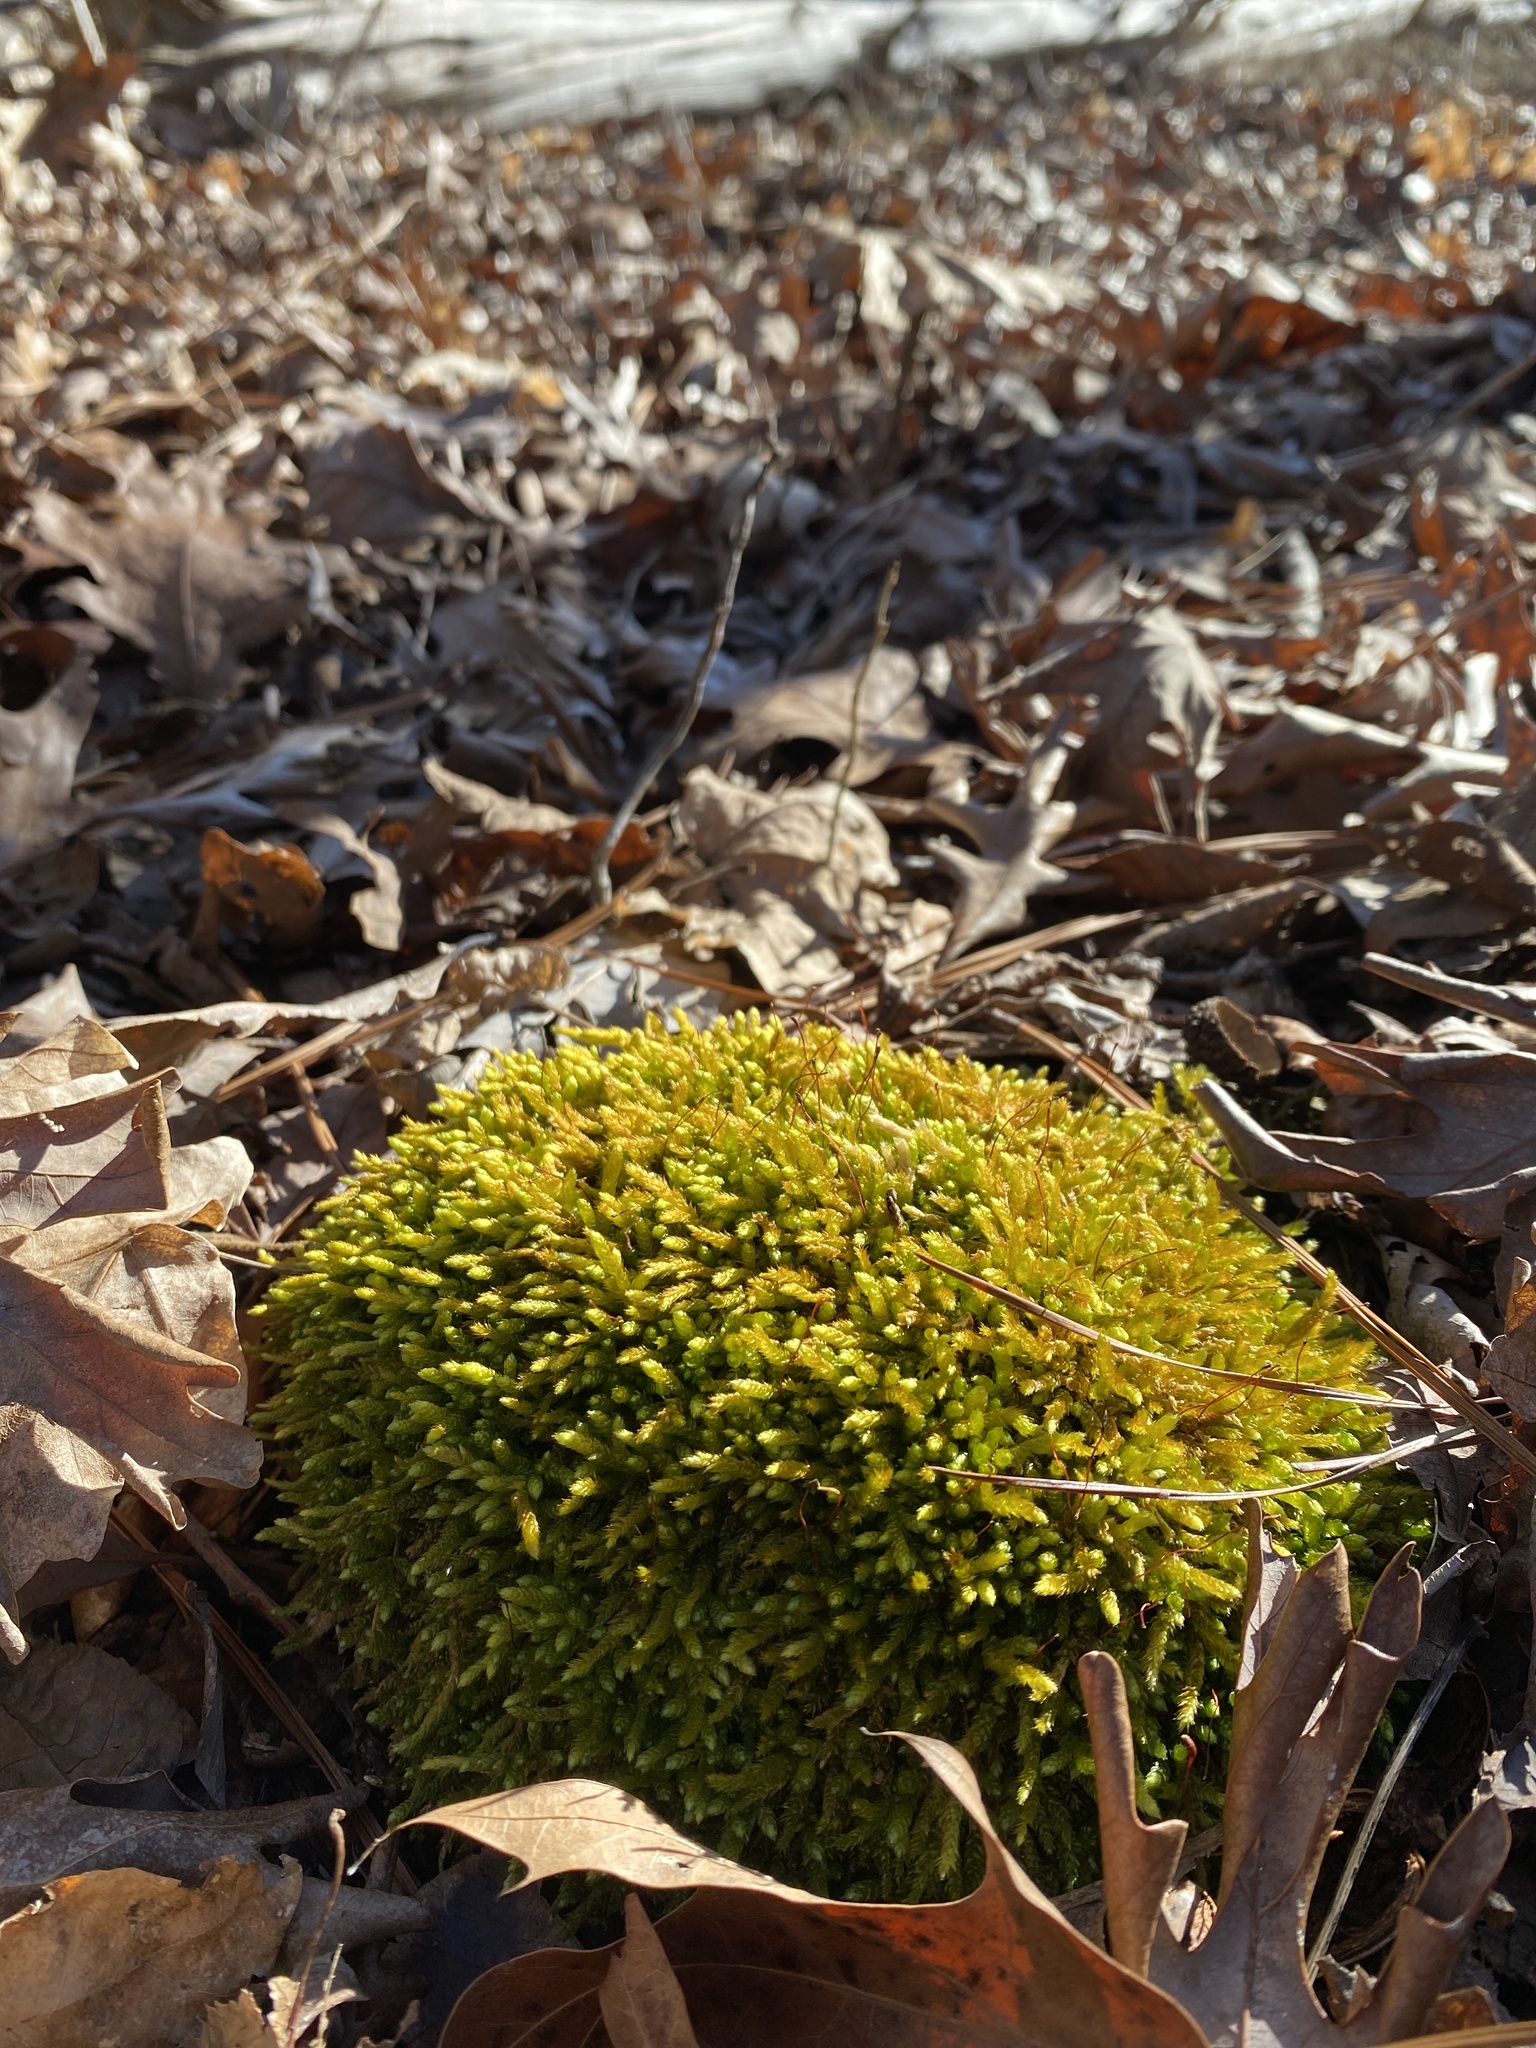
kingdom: Plantae
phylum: Bryophyta
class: Bryopsida
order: Hypnales
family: Brachytheciaceae
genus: Bryoandersonia
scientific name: Bryoandersonia illecebra
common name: Spoon-leaved moss
